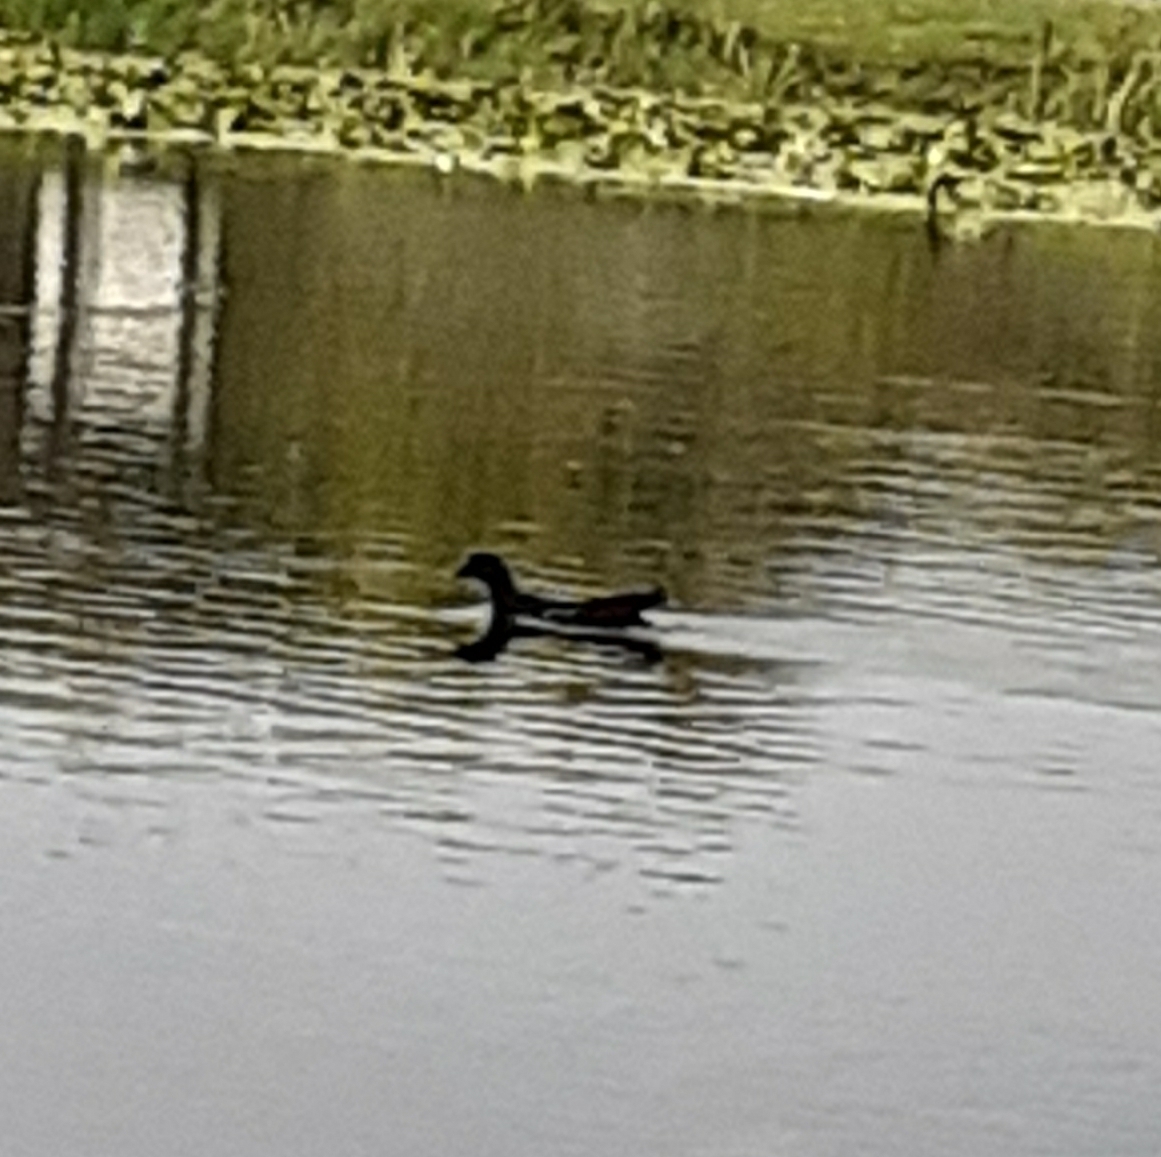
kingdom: Animalia
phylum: Chordata
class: Aves
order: Gruiformes
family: Rallidae
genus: Gallinula
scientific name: Gallinula chloropus
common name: Common moorhen
